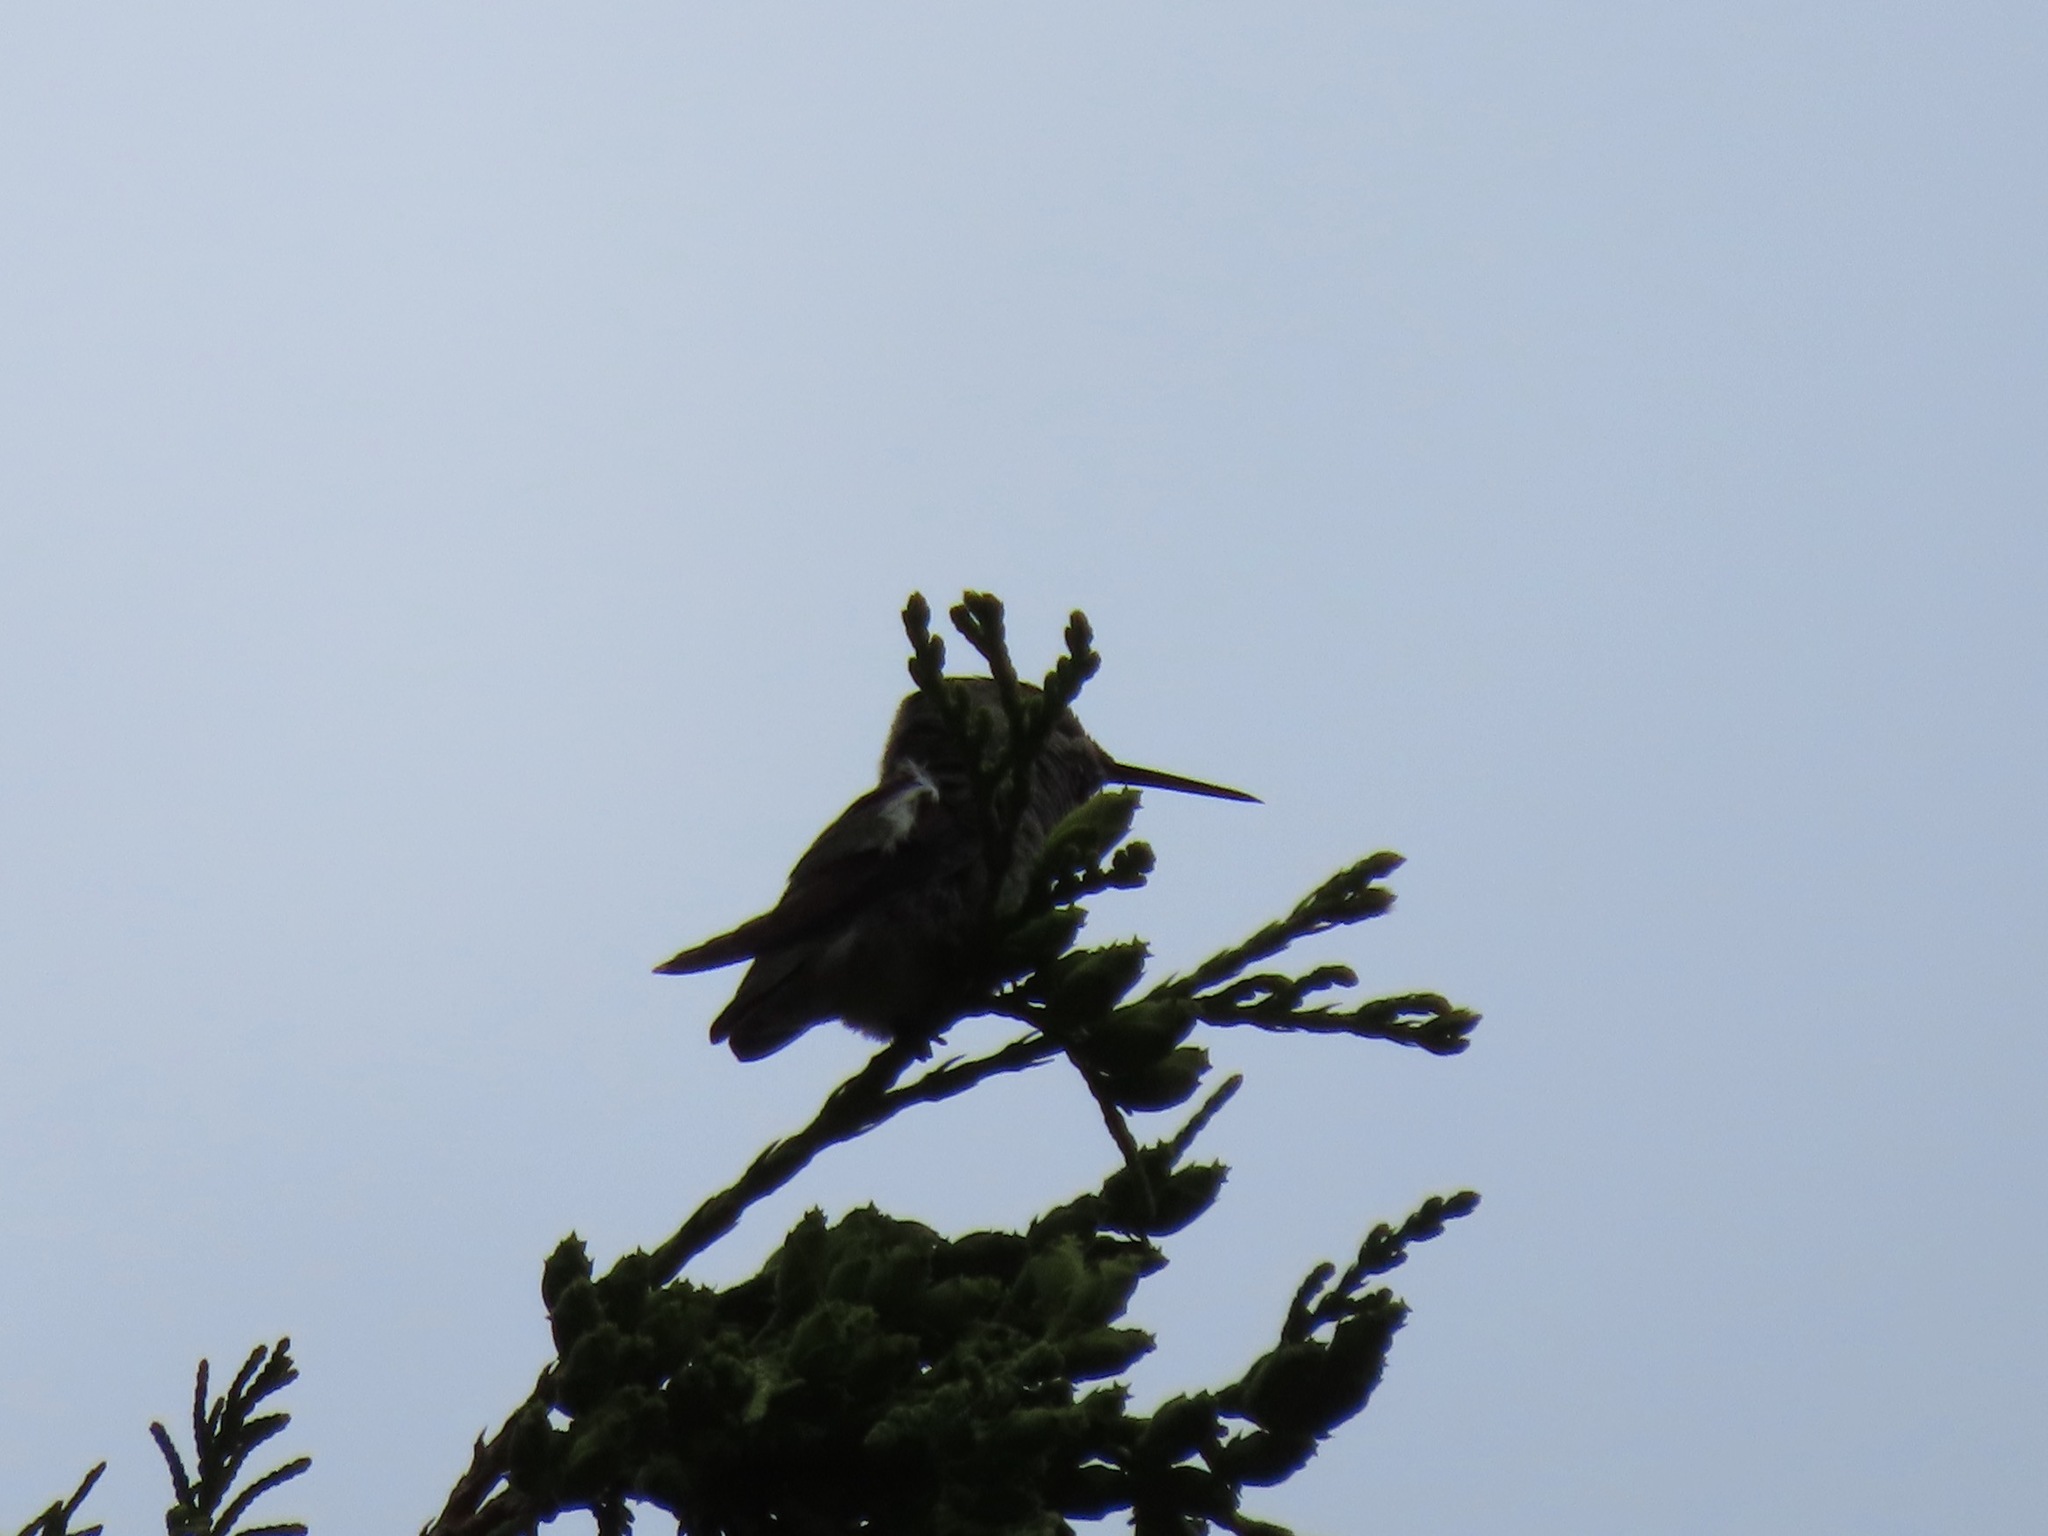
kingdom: Animalia
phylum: Chordata
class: Aves
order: Apodiformes
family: Trochilidae
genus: Calypte
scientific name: Calypte anna
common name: Anna's hummingbird
